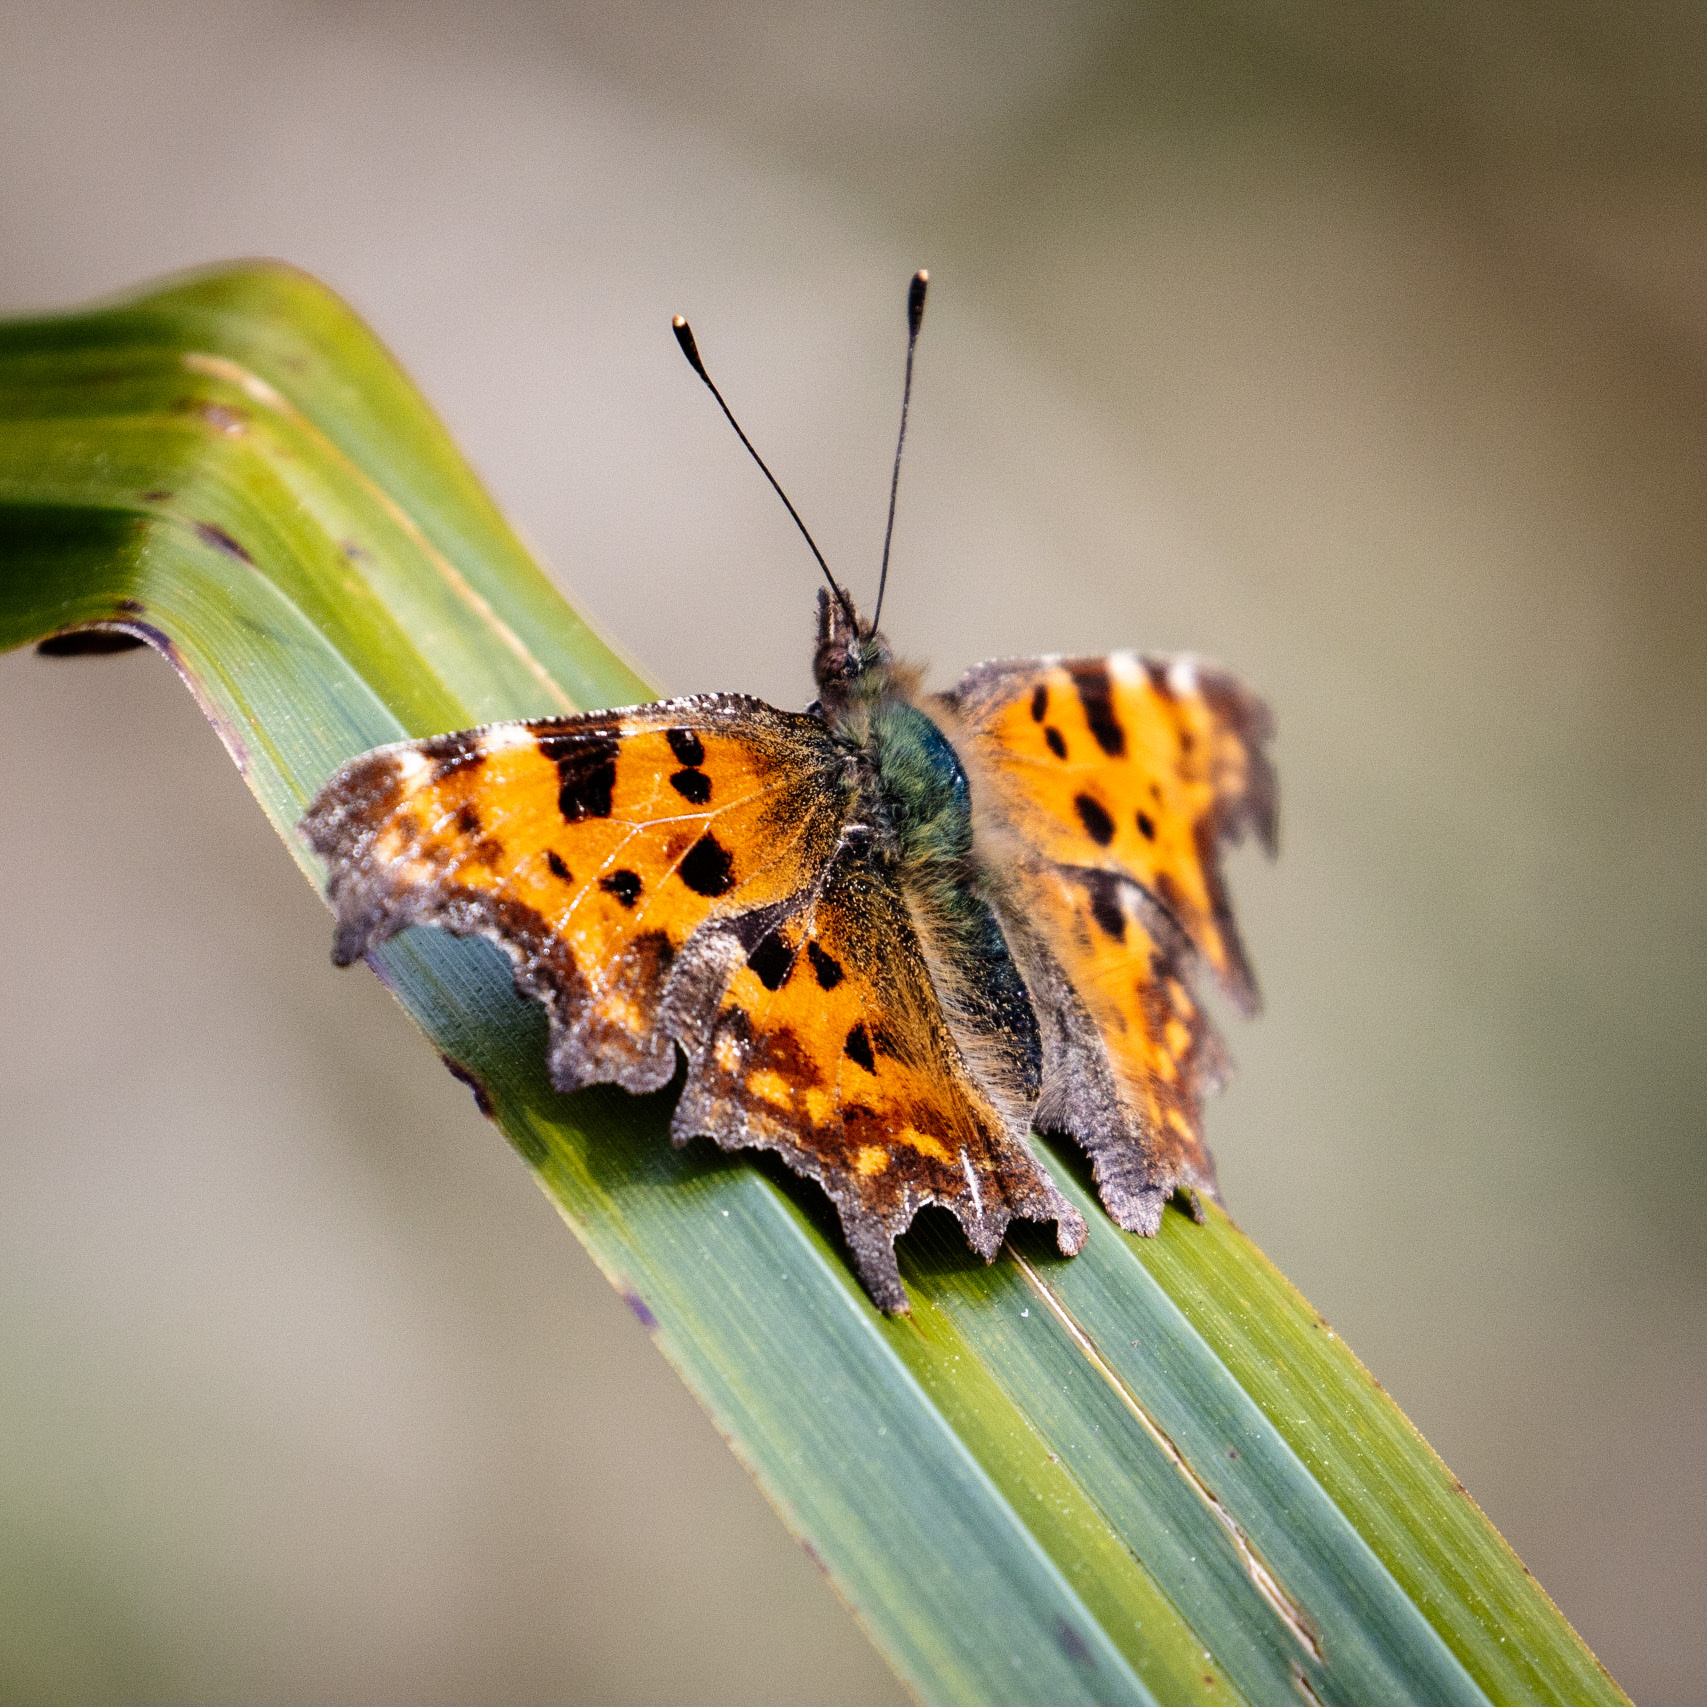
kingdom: Animalia
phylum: Arthropoda
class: Insecta
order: Lepidoptera
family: Nymphalidae
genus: Polygonia
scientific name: Polygonia c-album
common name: Comma
